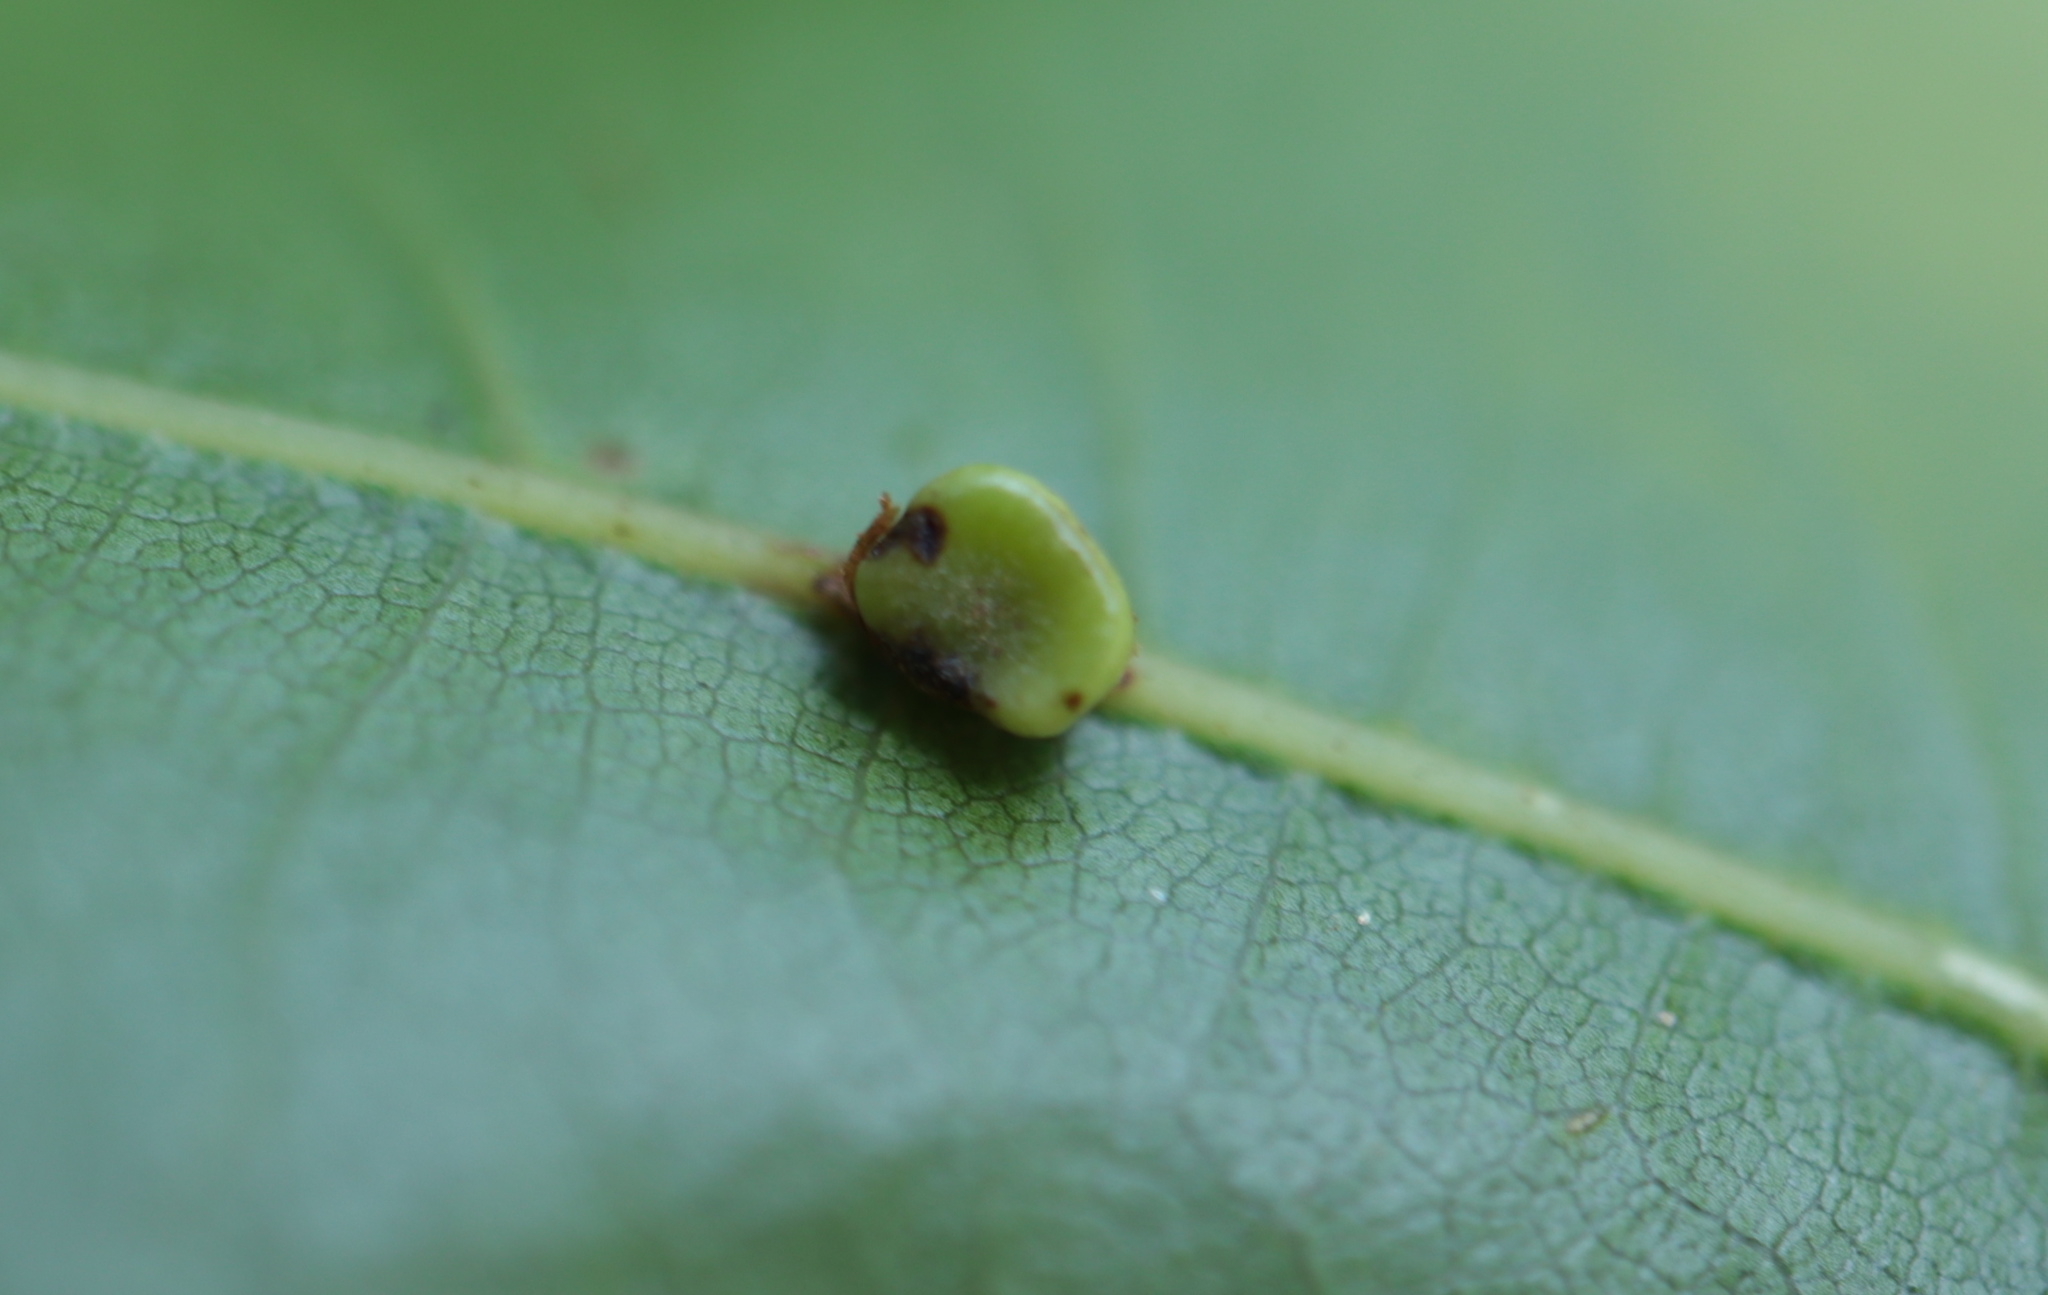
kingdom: Animalia
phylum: Arthropoda
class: Insecta
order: Hymenoptera
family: Cynipidae
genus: Kokkocynips
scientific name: Kokkocynips rileyi
